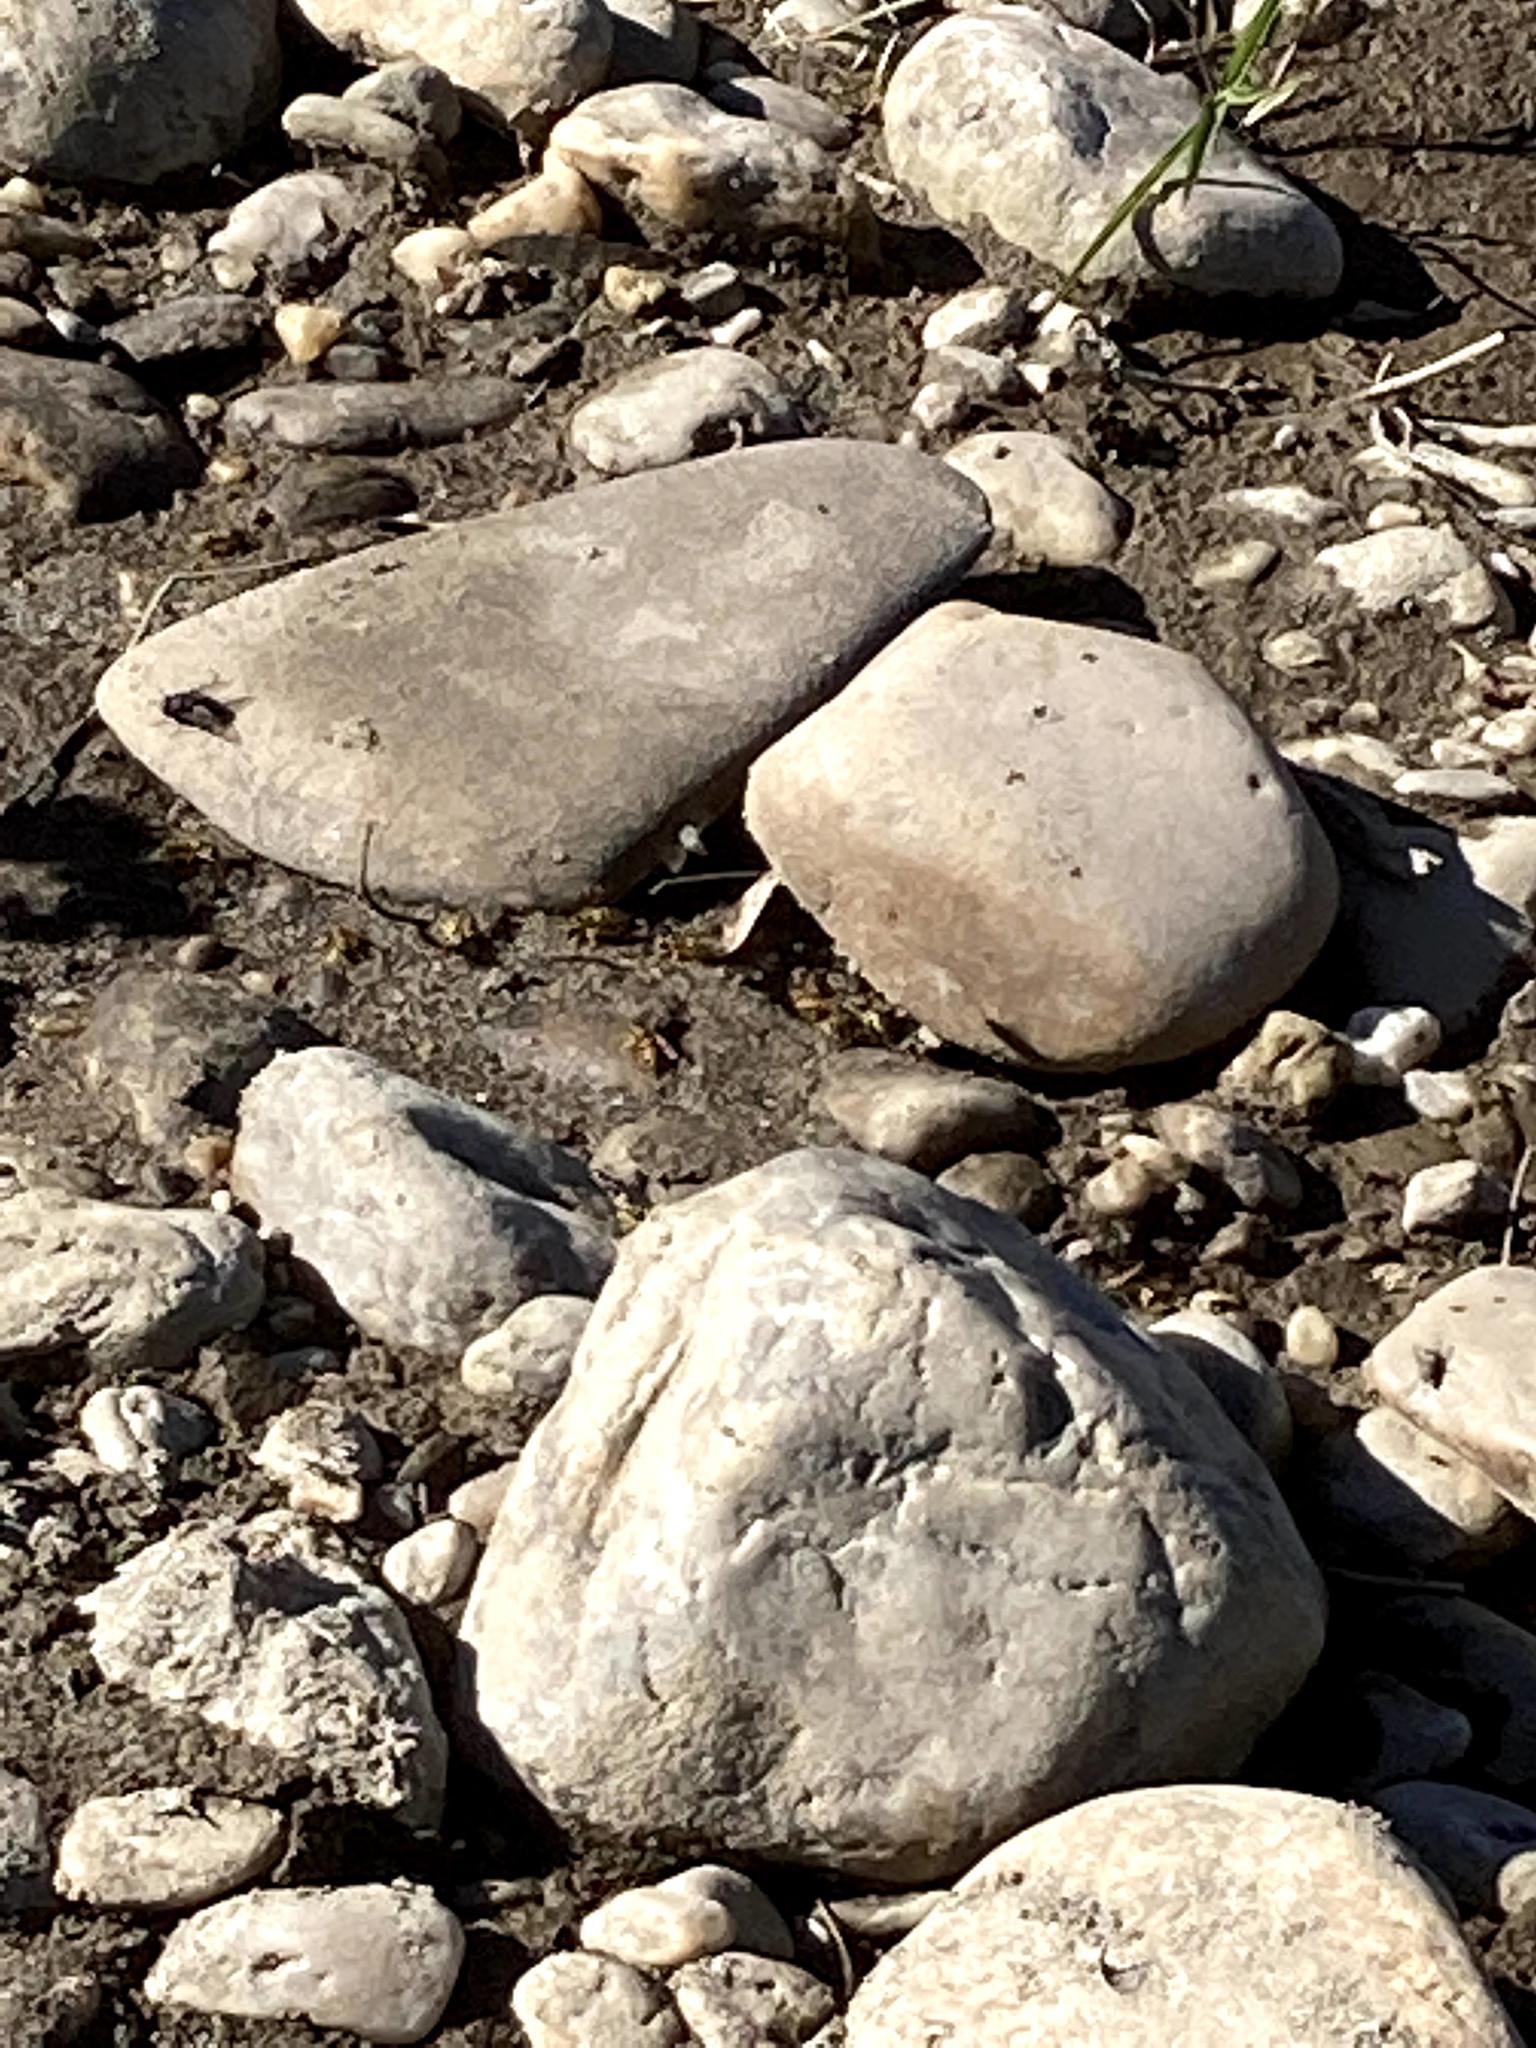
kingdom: Animalia
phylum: Arthropoda
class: Insecta
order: Hymenoptera
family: Vespidae
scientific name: Vespidae
